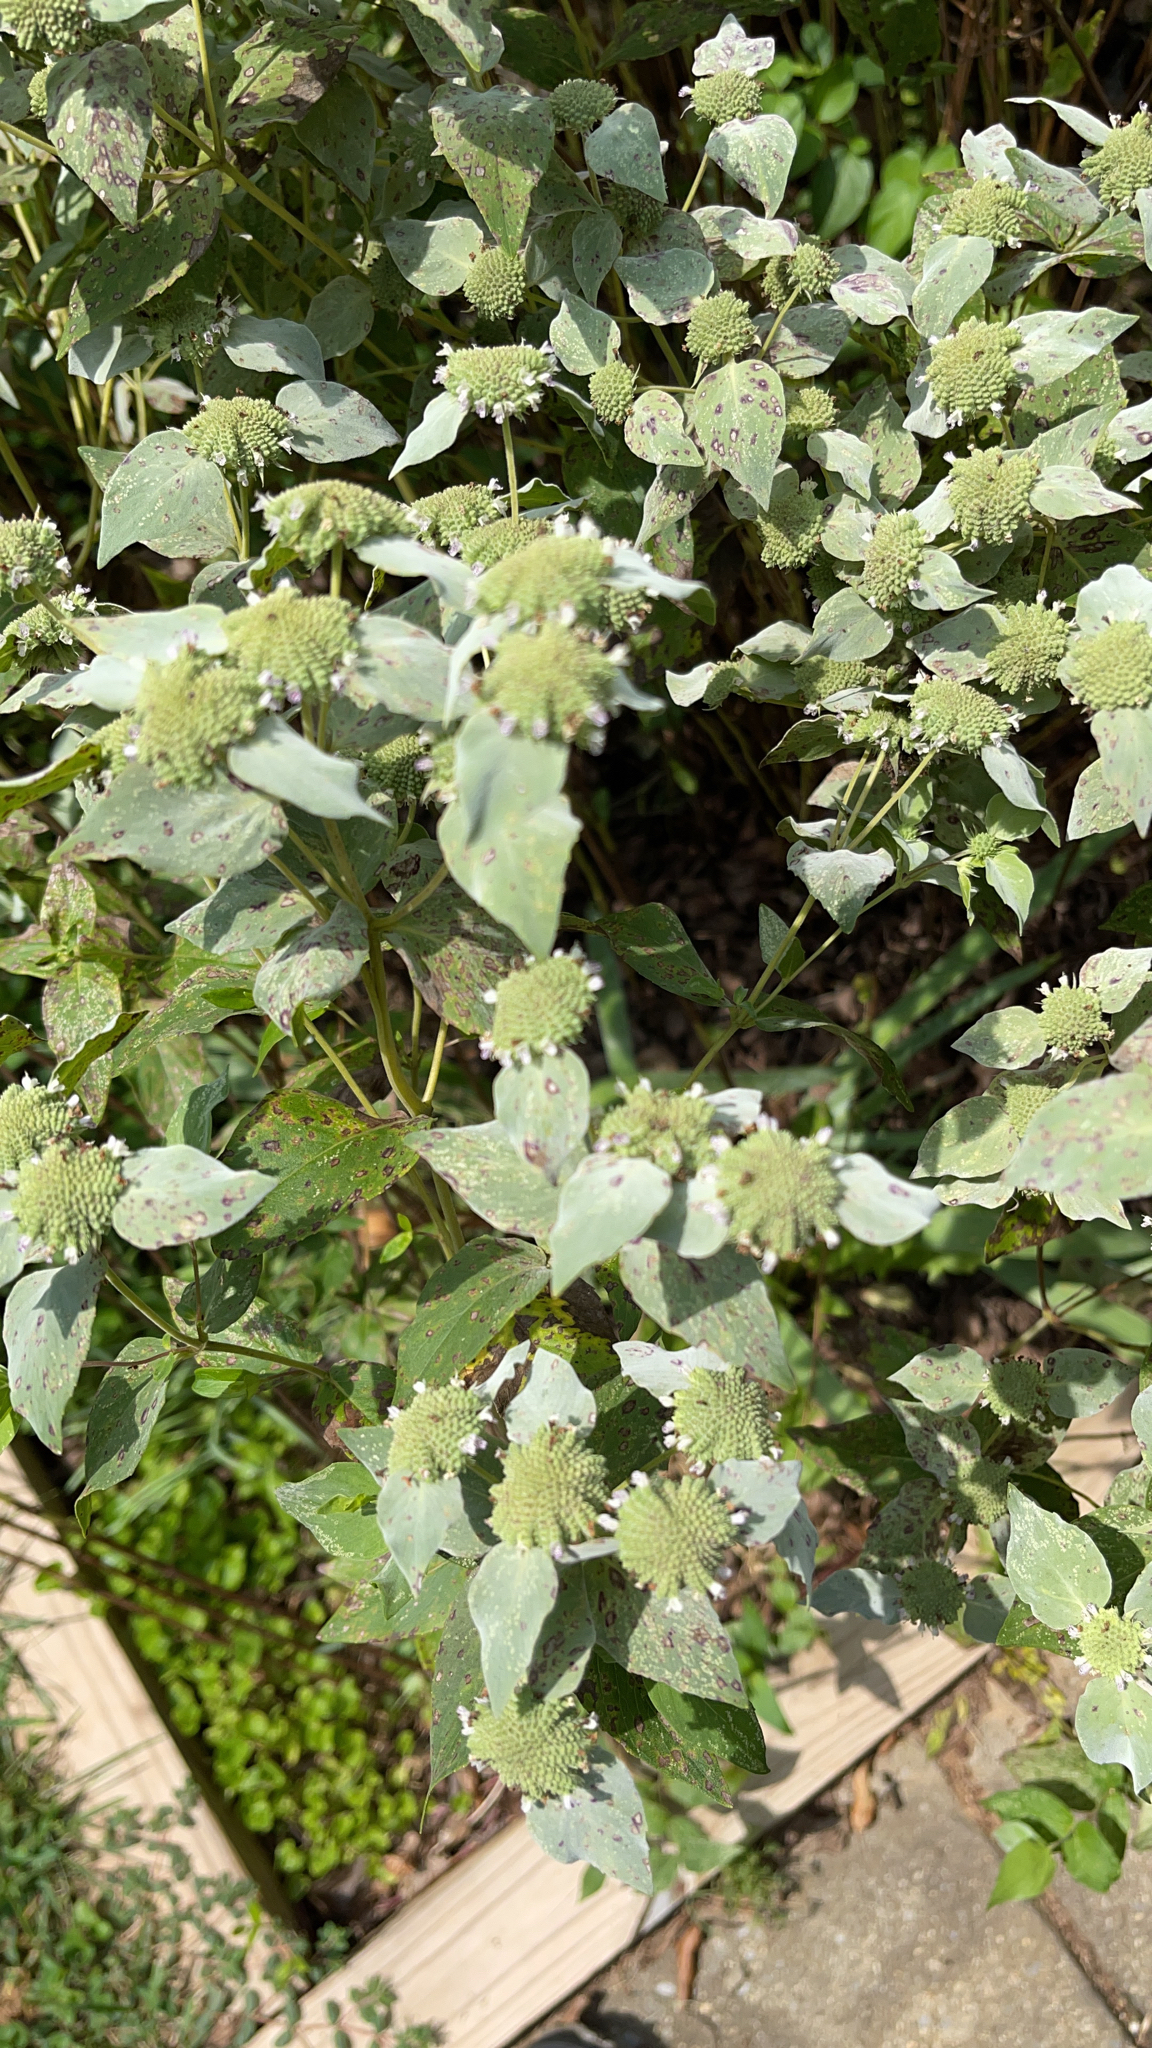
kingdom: Plantae
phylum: Tracheophyta
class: Magnoliopsida
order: Lamiales
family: Lamiaceae
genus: Pycnanthemum
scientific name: Pycnanthemum muticum
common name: Blunt mountain-mint
